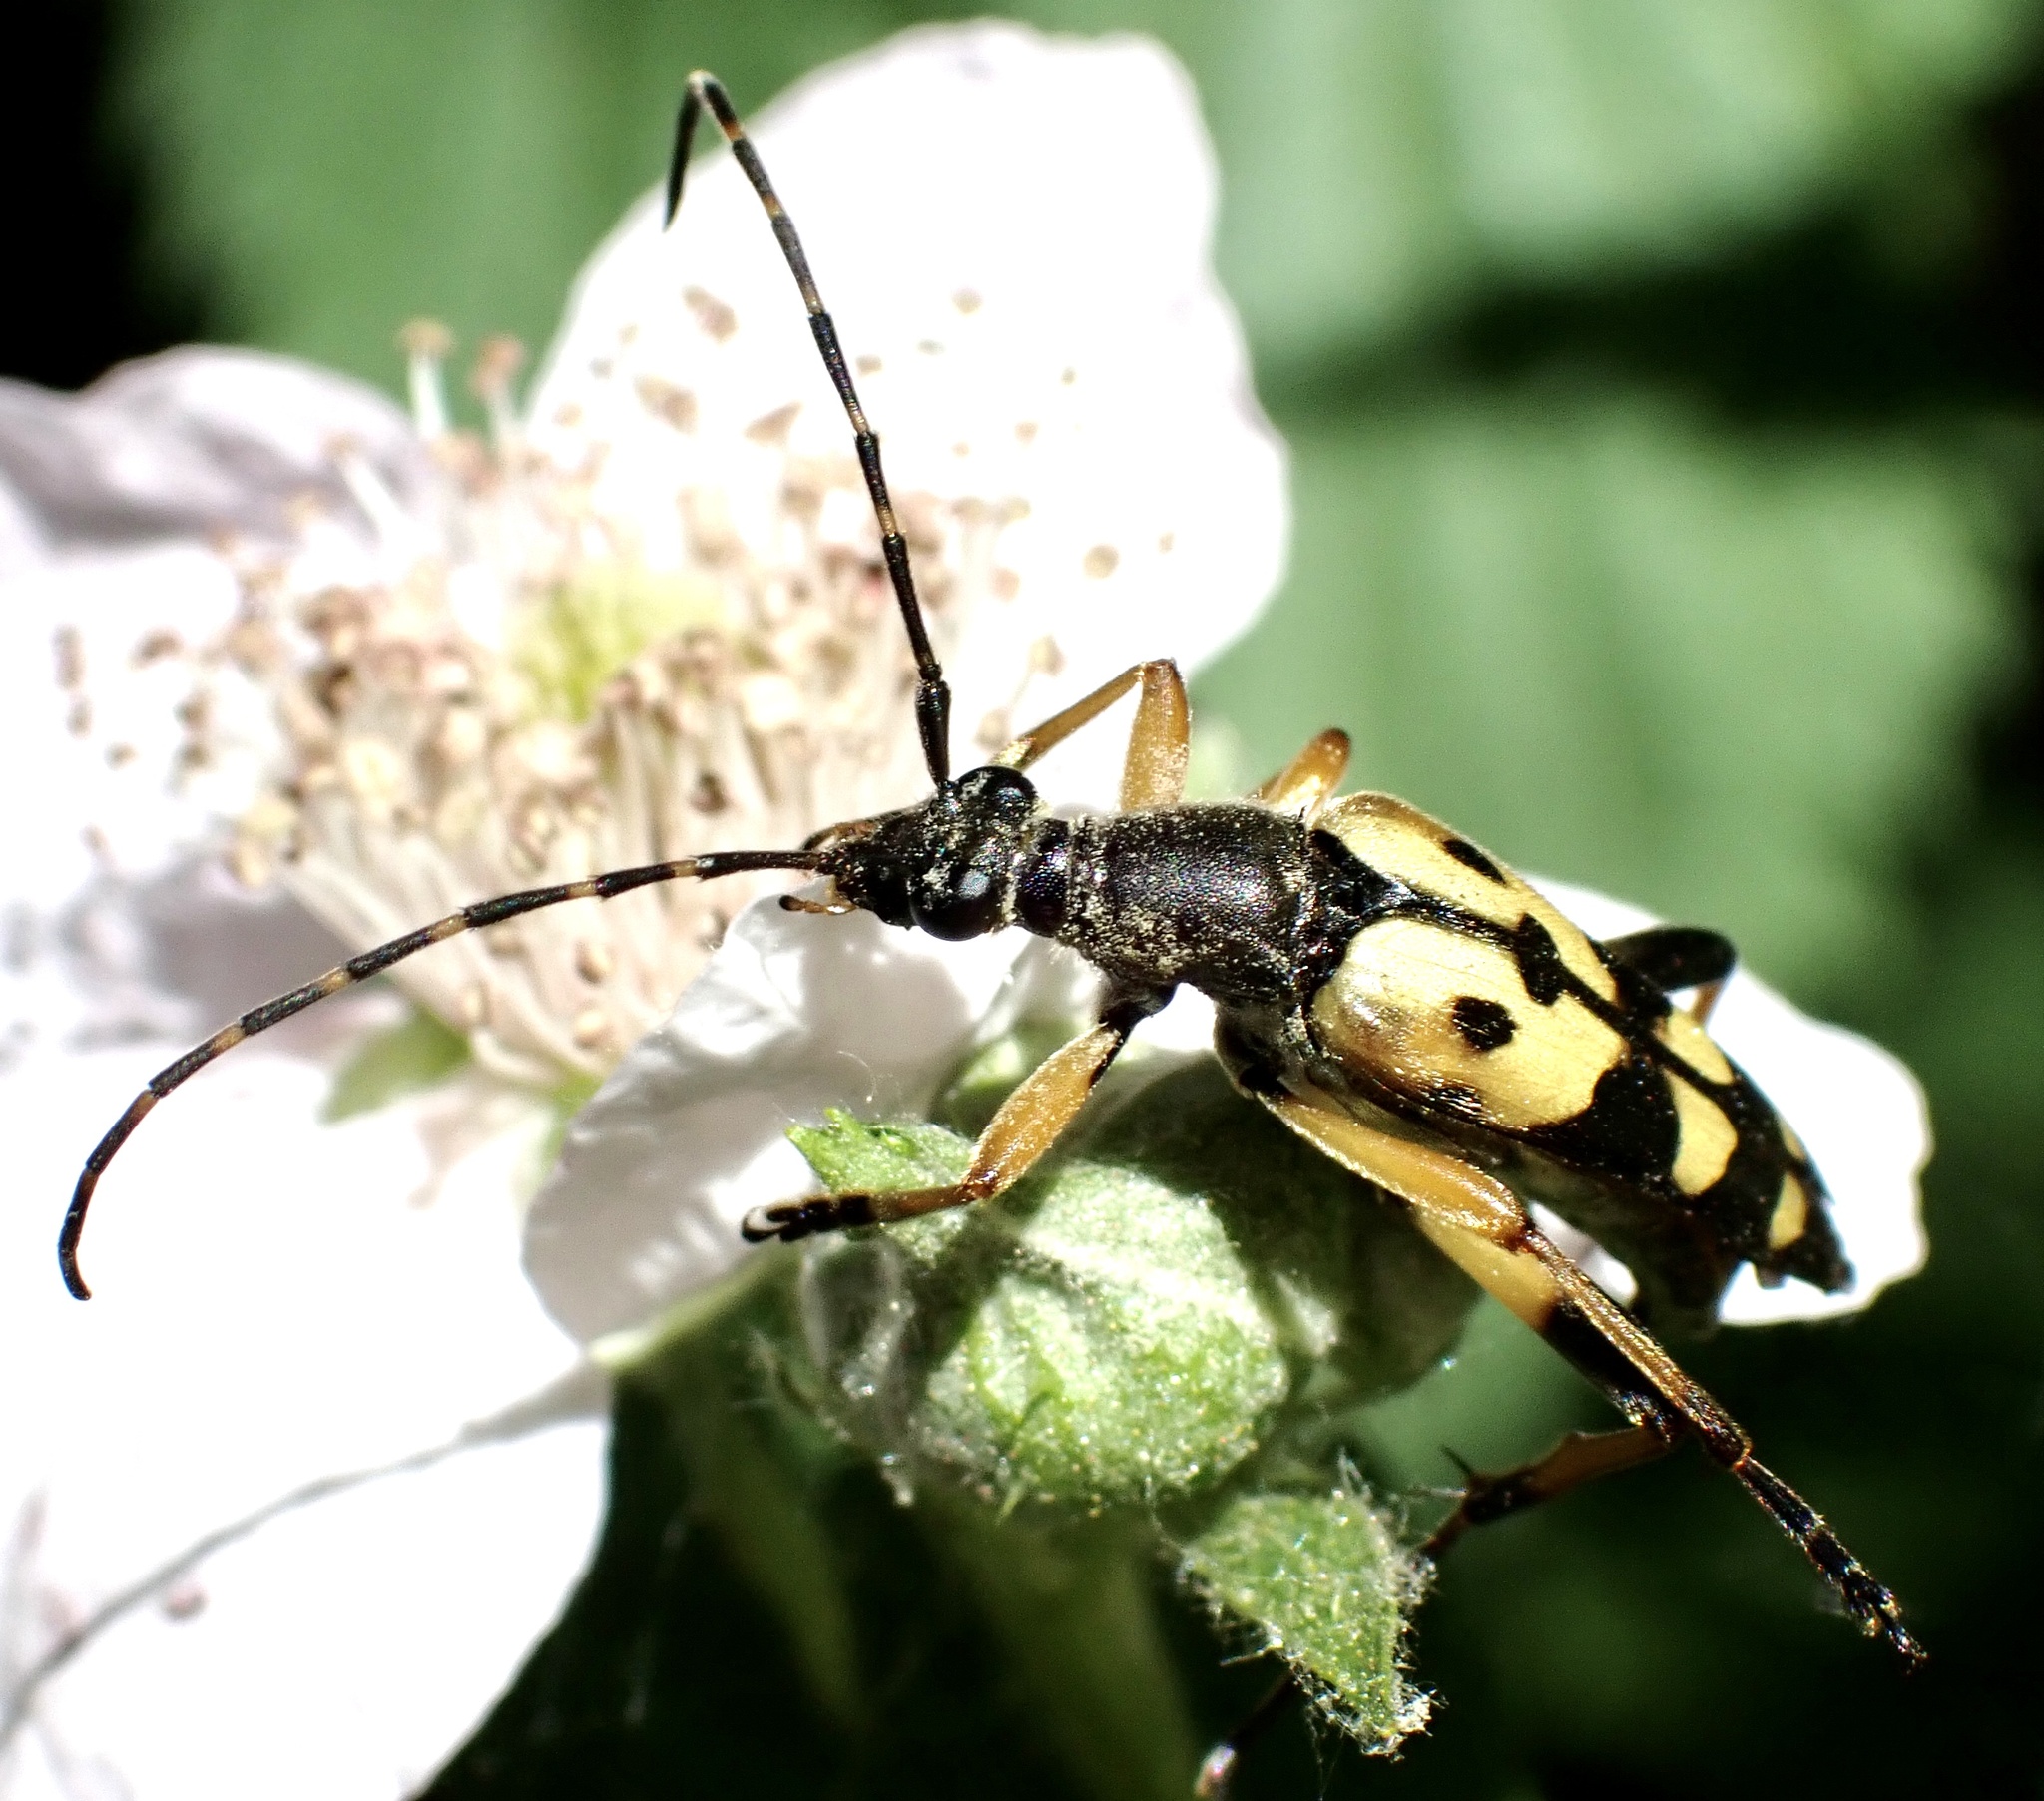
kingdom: Animalia
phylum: Arthropoda
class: Insecta
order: Coleoptera
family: Cerambycidae
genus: Rutpela
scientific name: Rutpela maculata
